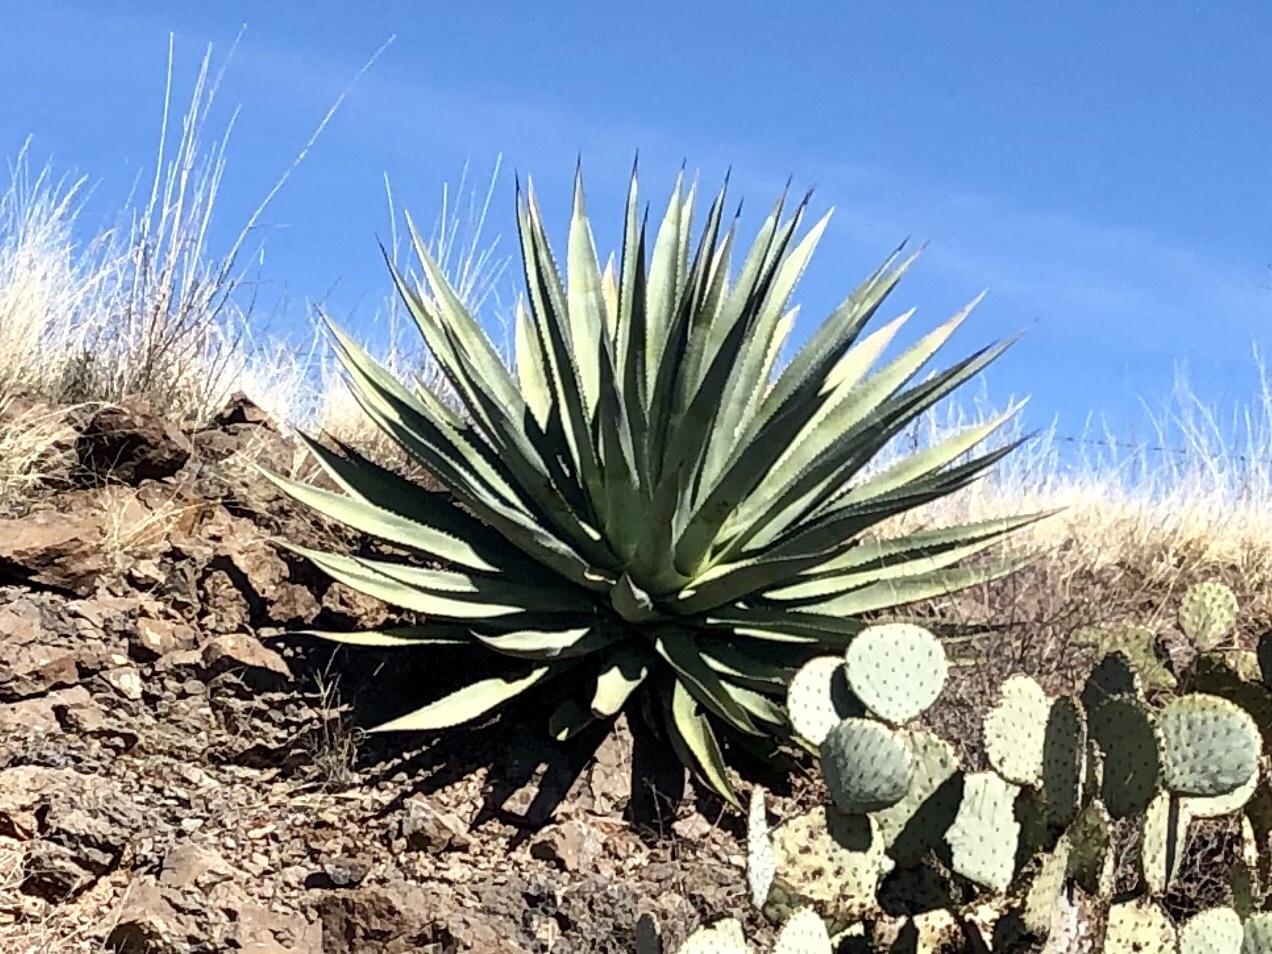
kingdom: Plantae
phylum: Tracheophyta
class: Liliopsida
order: Asparagales
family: Asparagaceae
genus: Agave
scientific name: Agave palmeri
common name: Palmer agave
